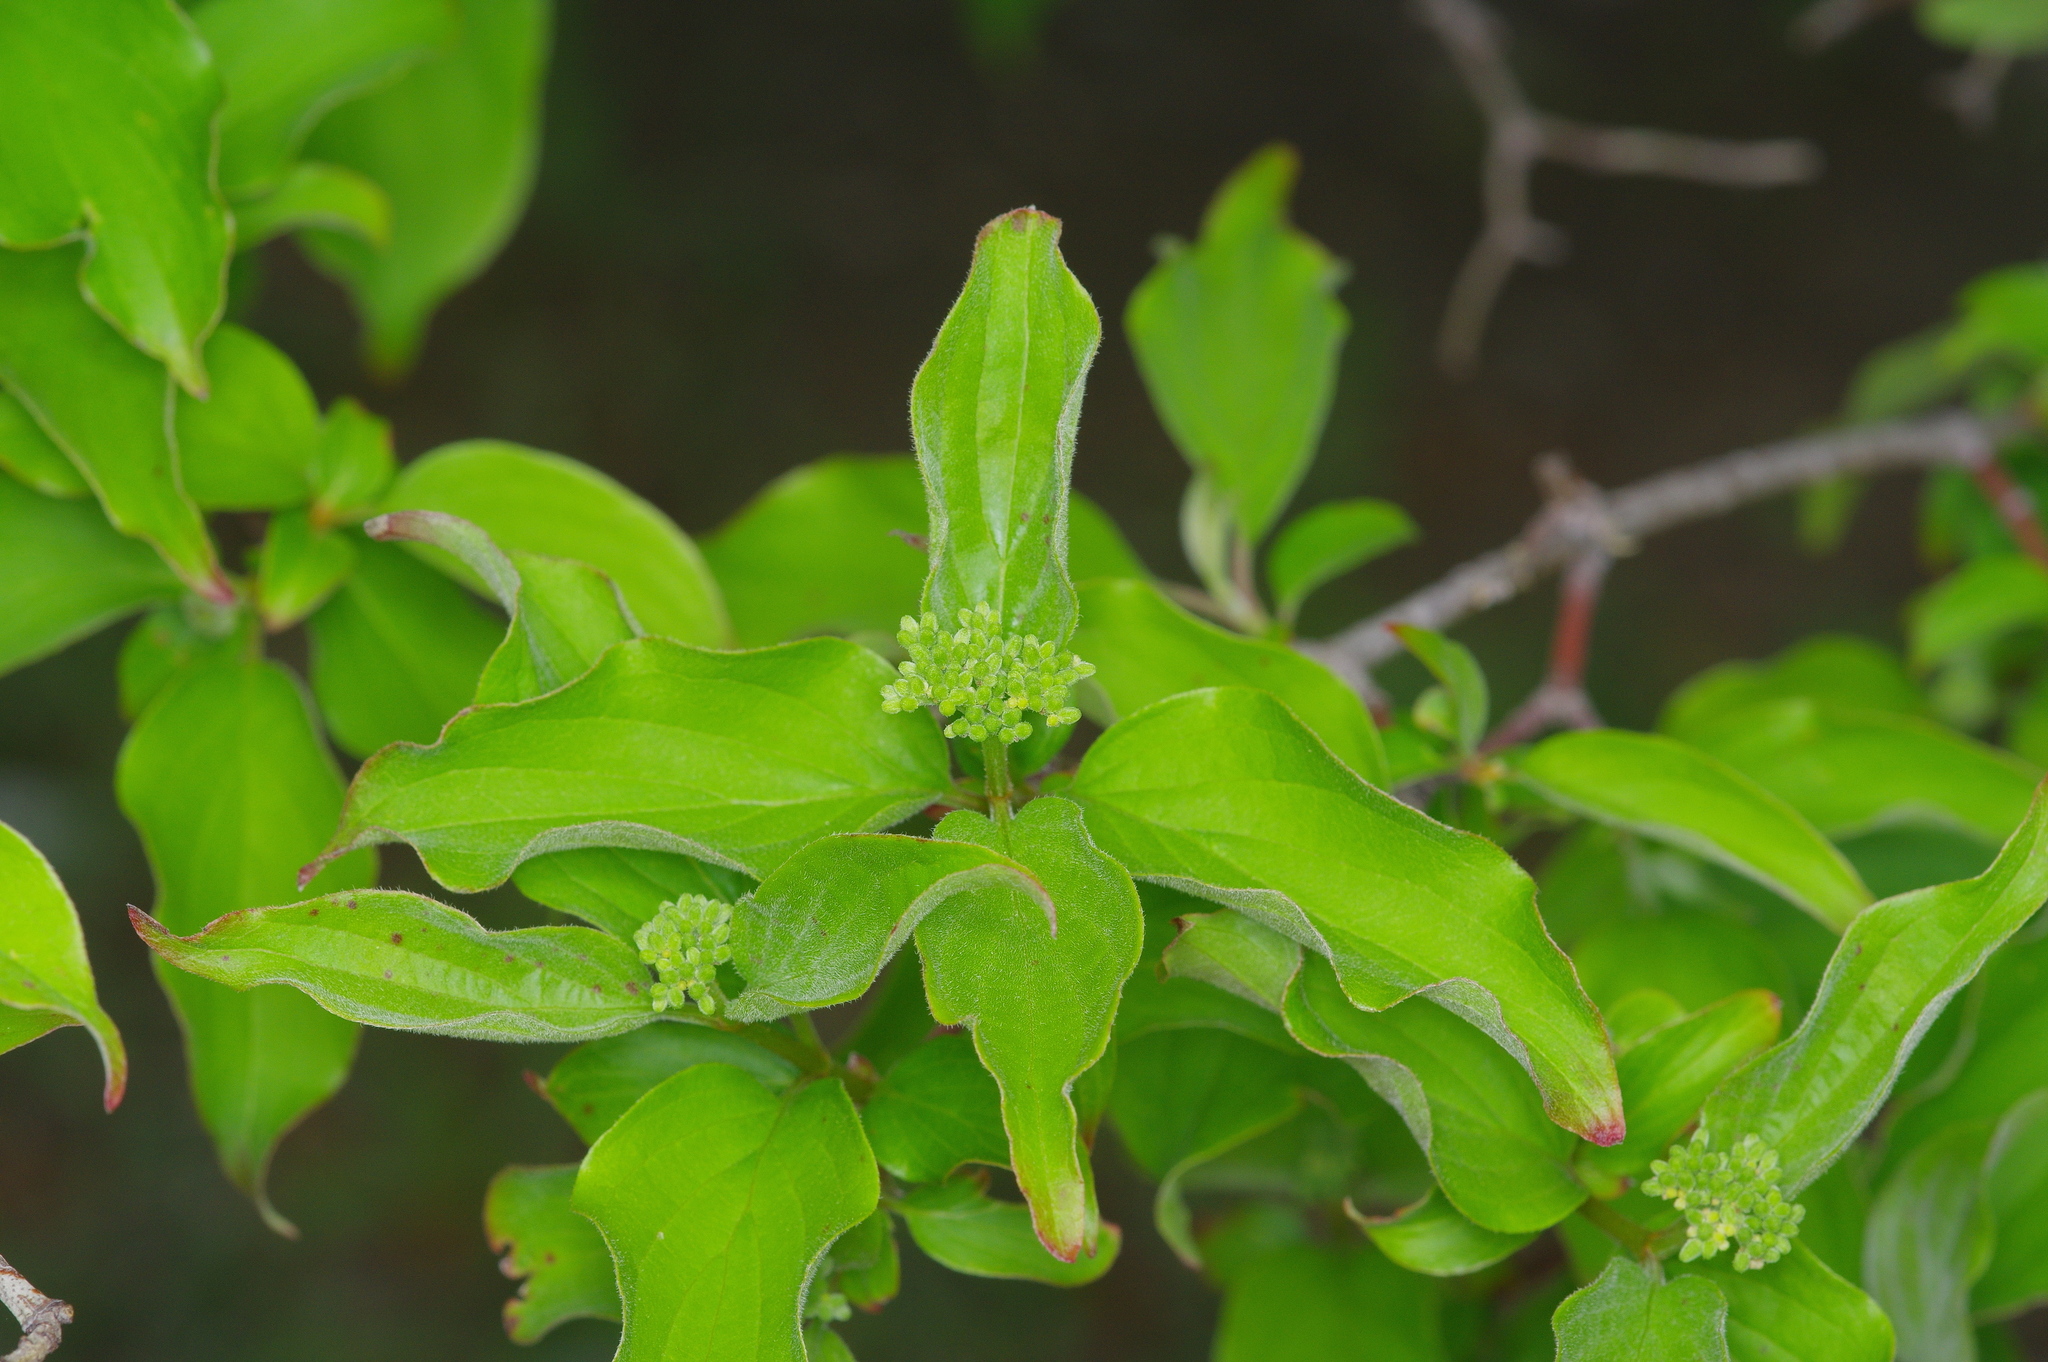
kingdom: Plantae
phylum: Tracheophyta
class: Magnoliopsida
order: Cornales
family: Cornaceae
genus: Cornus
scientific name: Cornus drummondii
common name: Rough-leaf dogwood
